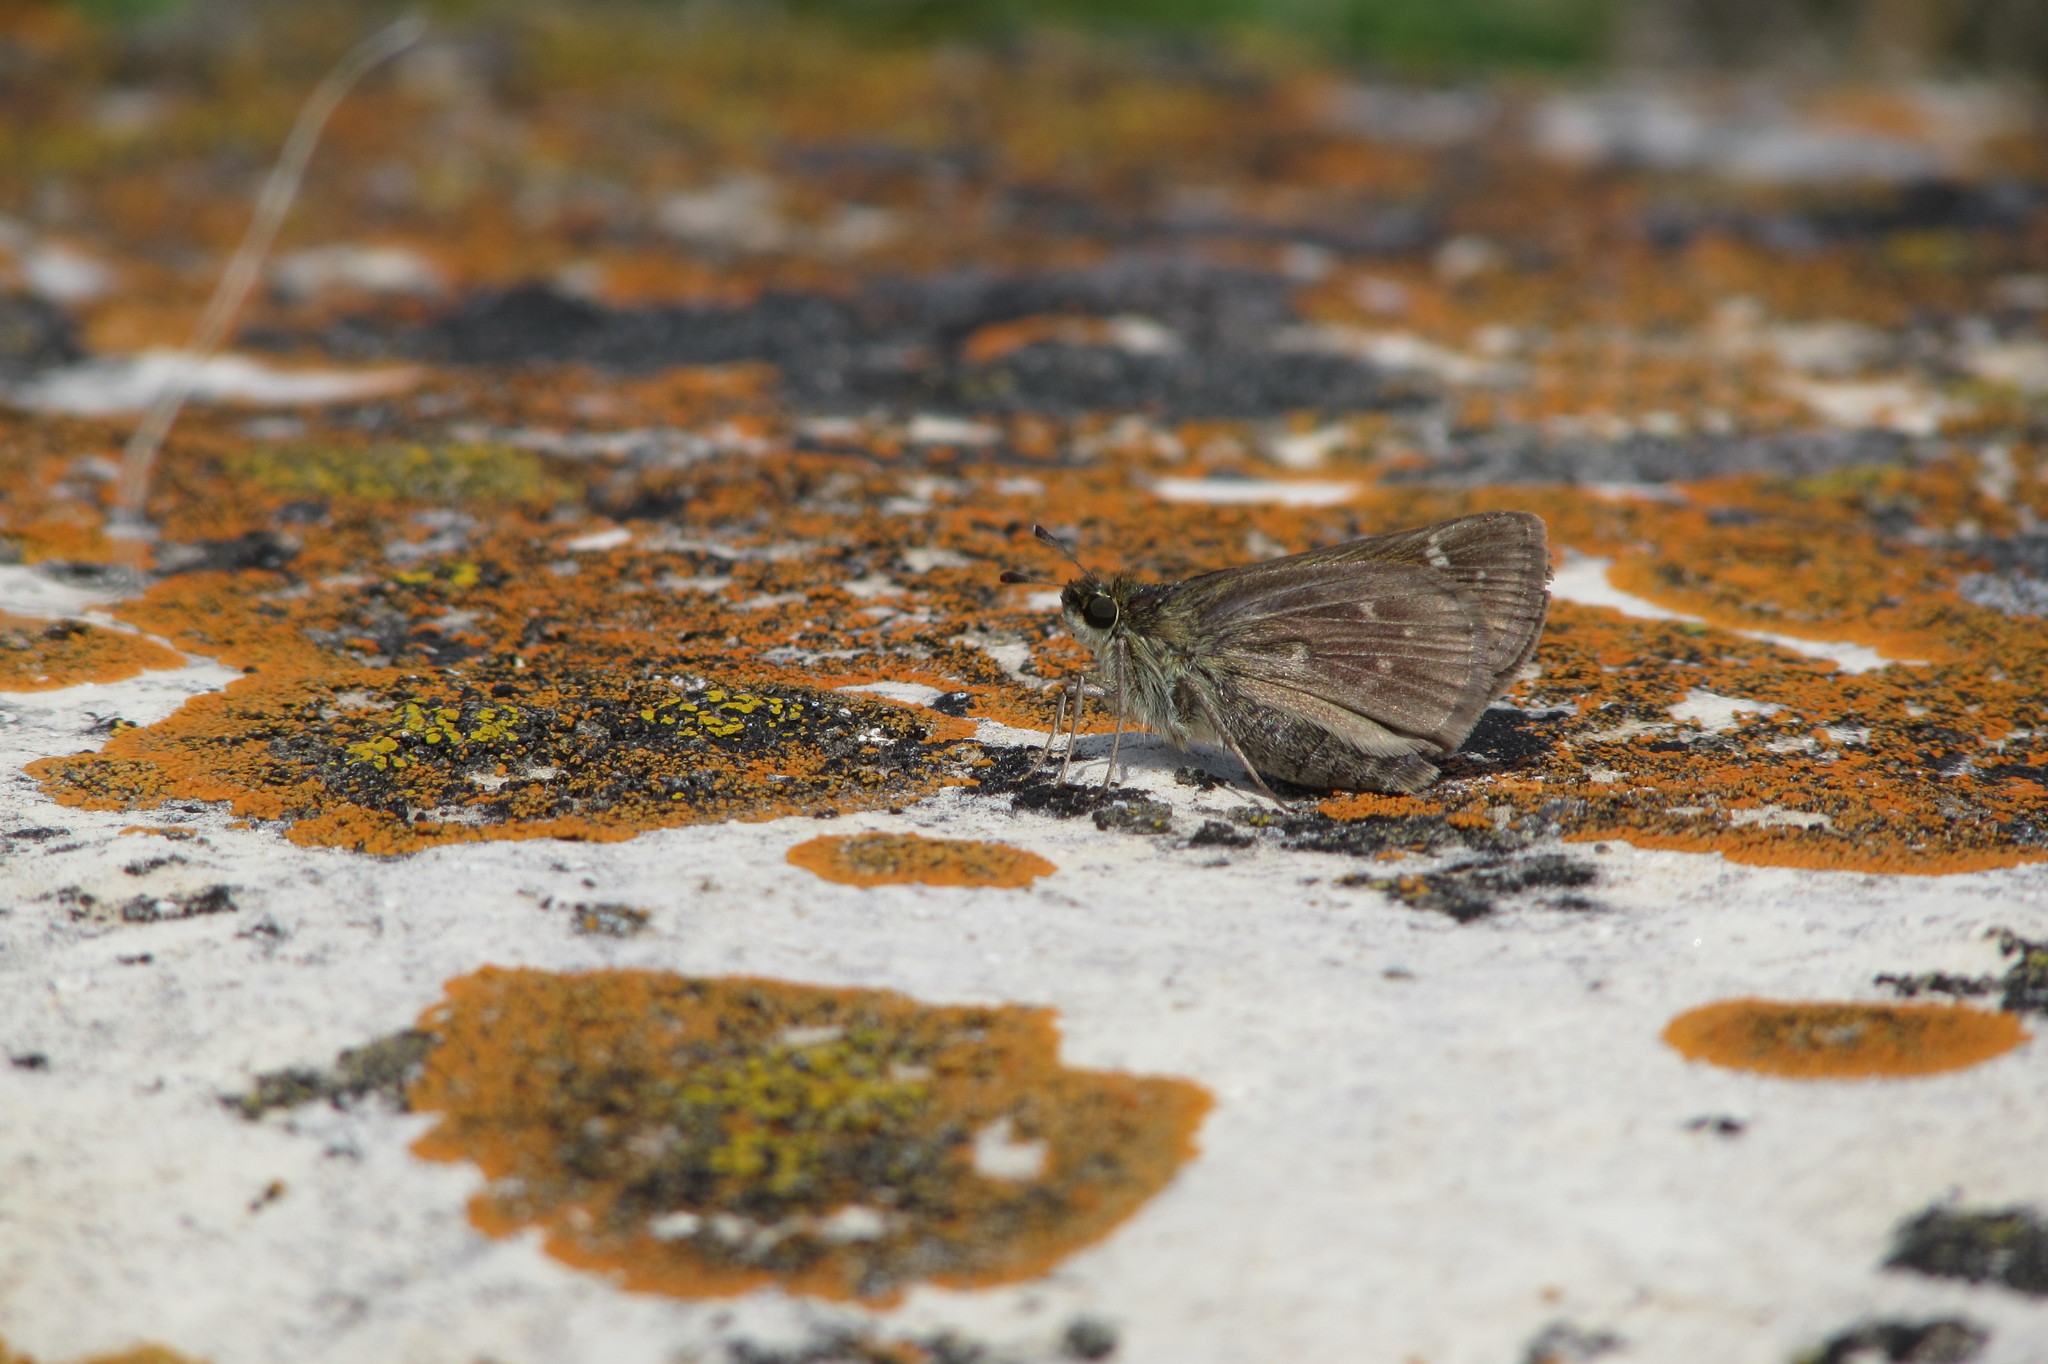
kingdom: Animalia
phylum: Arthropoda
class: Insecta
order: Lepidoptera
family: Hesperiidae
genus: Hesperia
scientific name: Hesperia dacotae
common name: Dakota skipper
